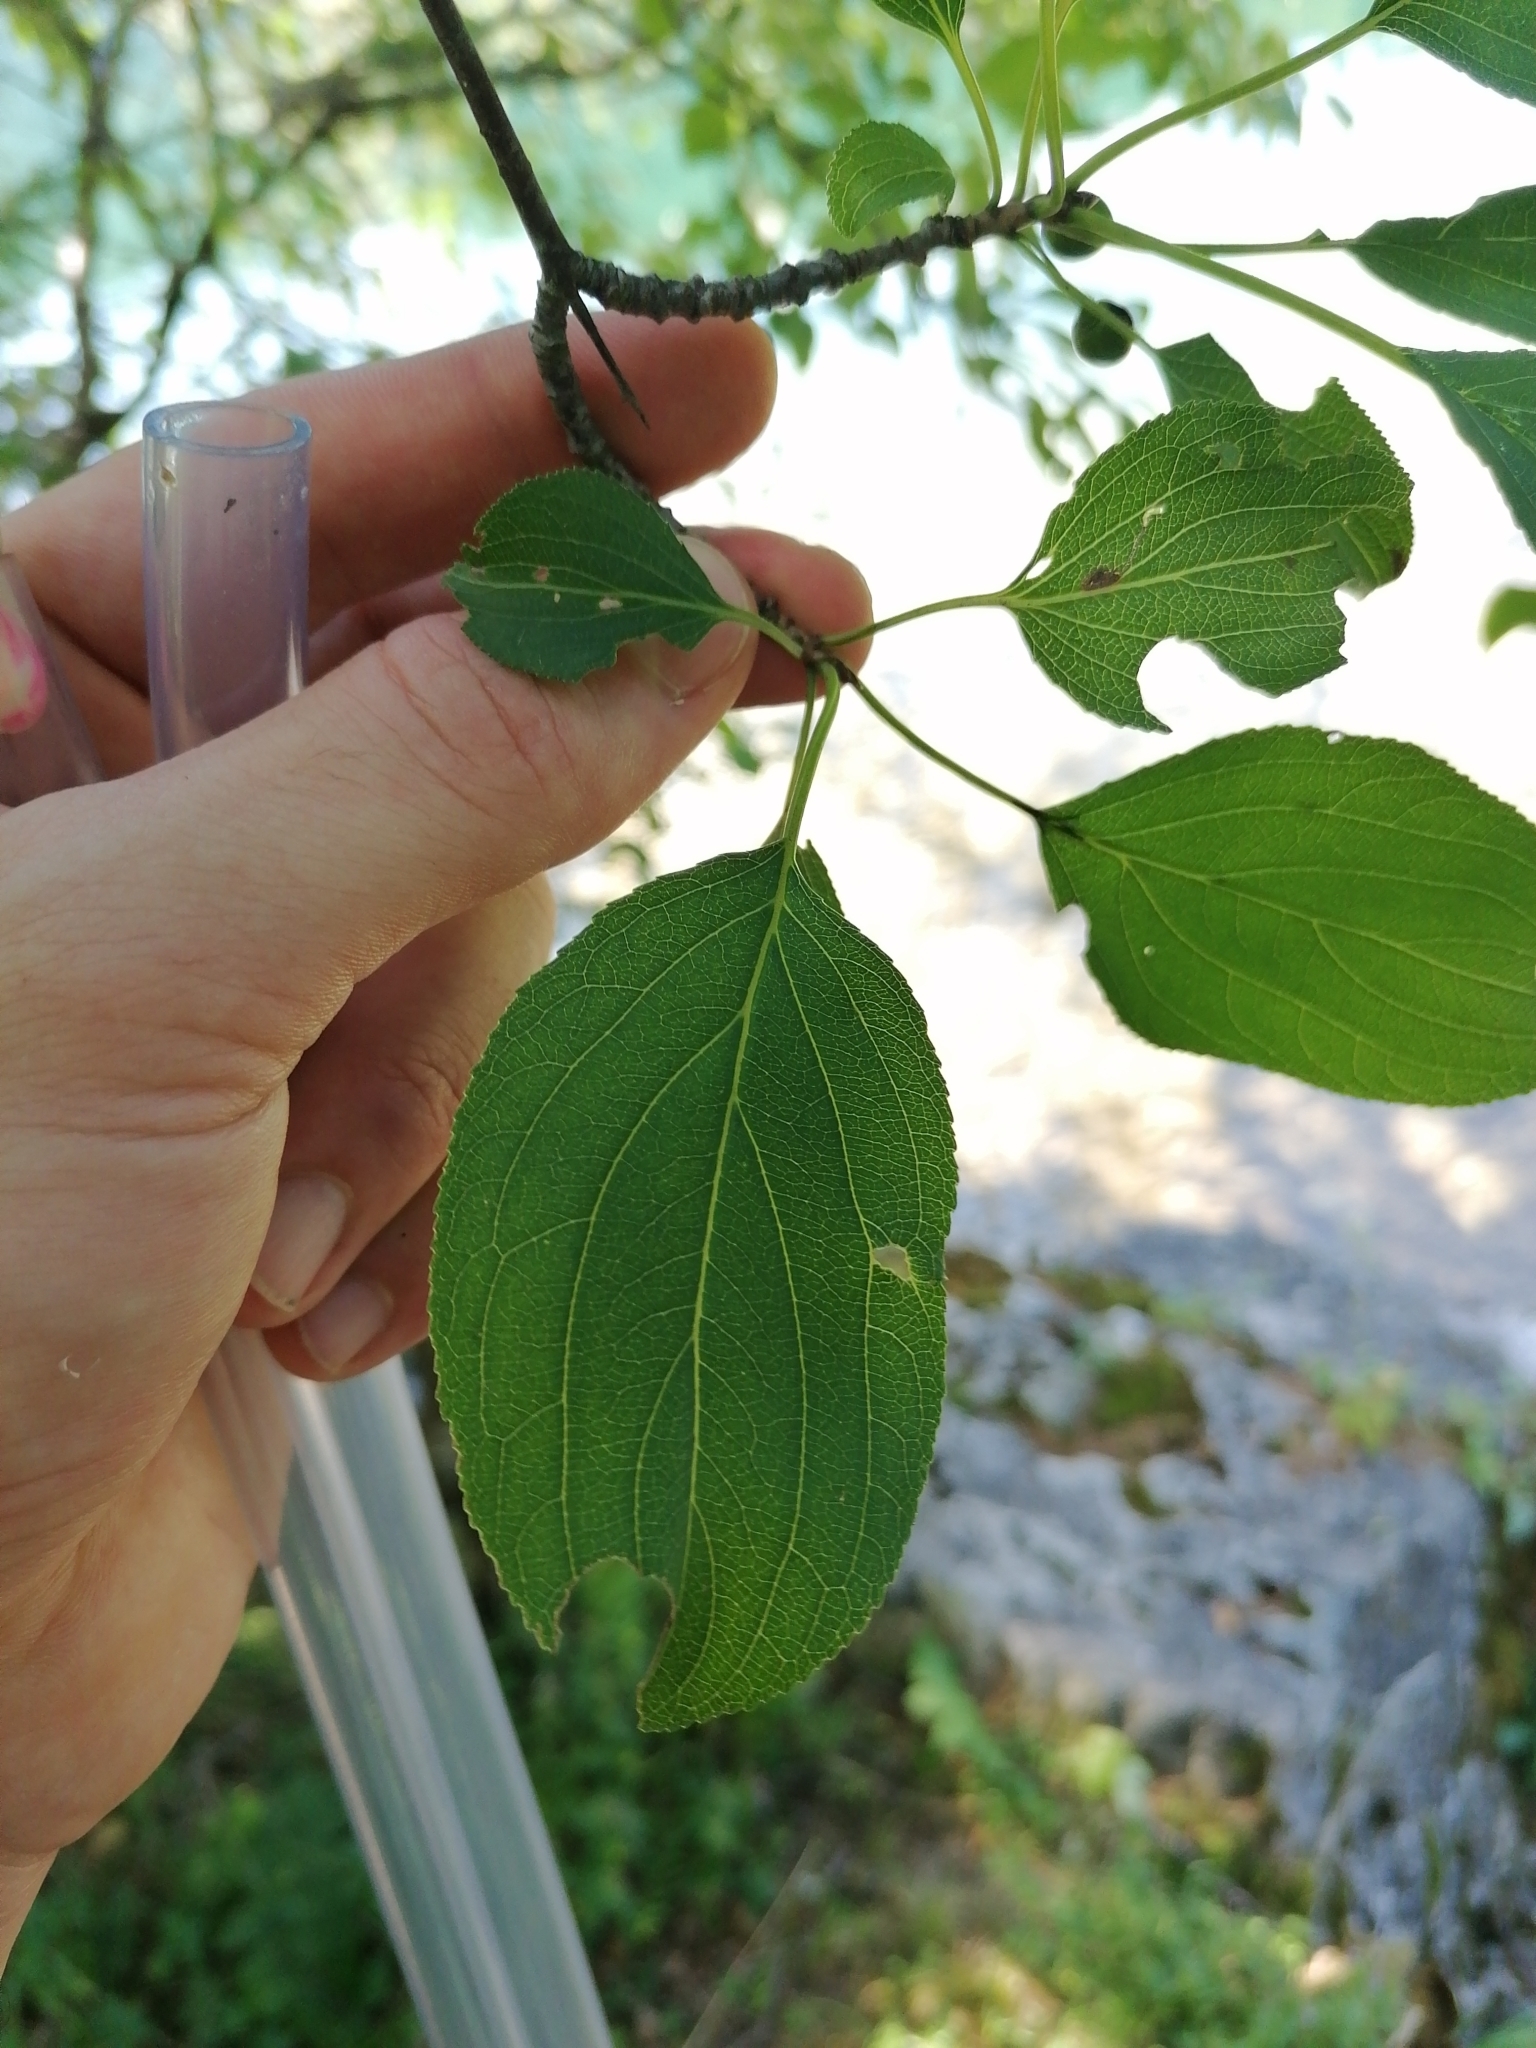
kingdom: Plantae
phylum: Tracheophyta
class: Magnoliopsida
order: Rosales
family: Rhamnaceae
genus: Rhamnus
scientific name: Rhamnus cathartica
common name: Common buckthorn
